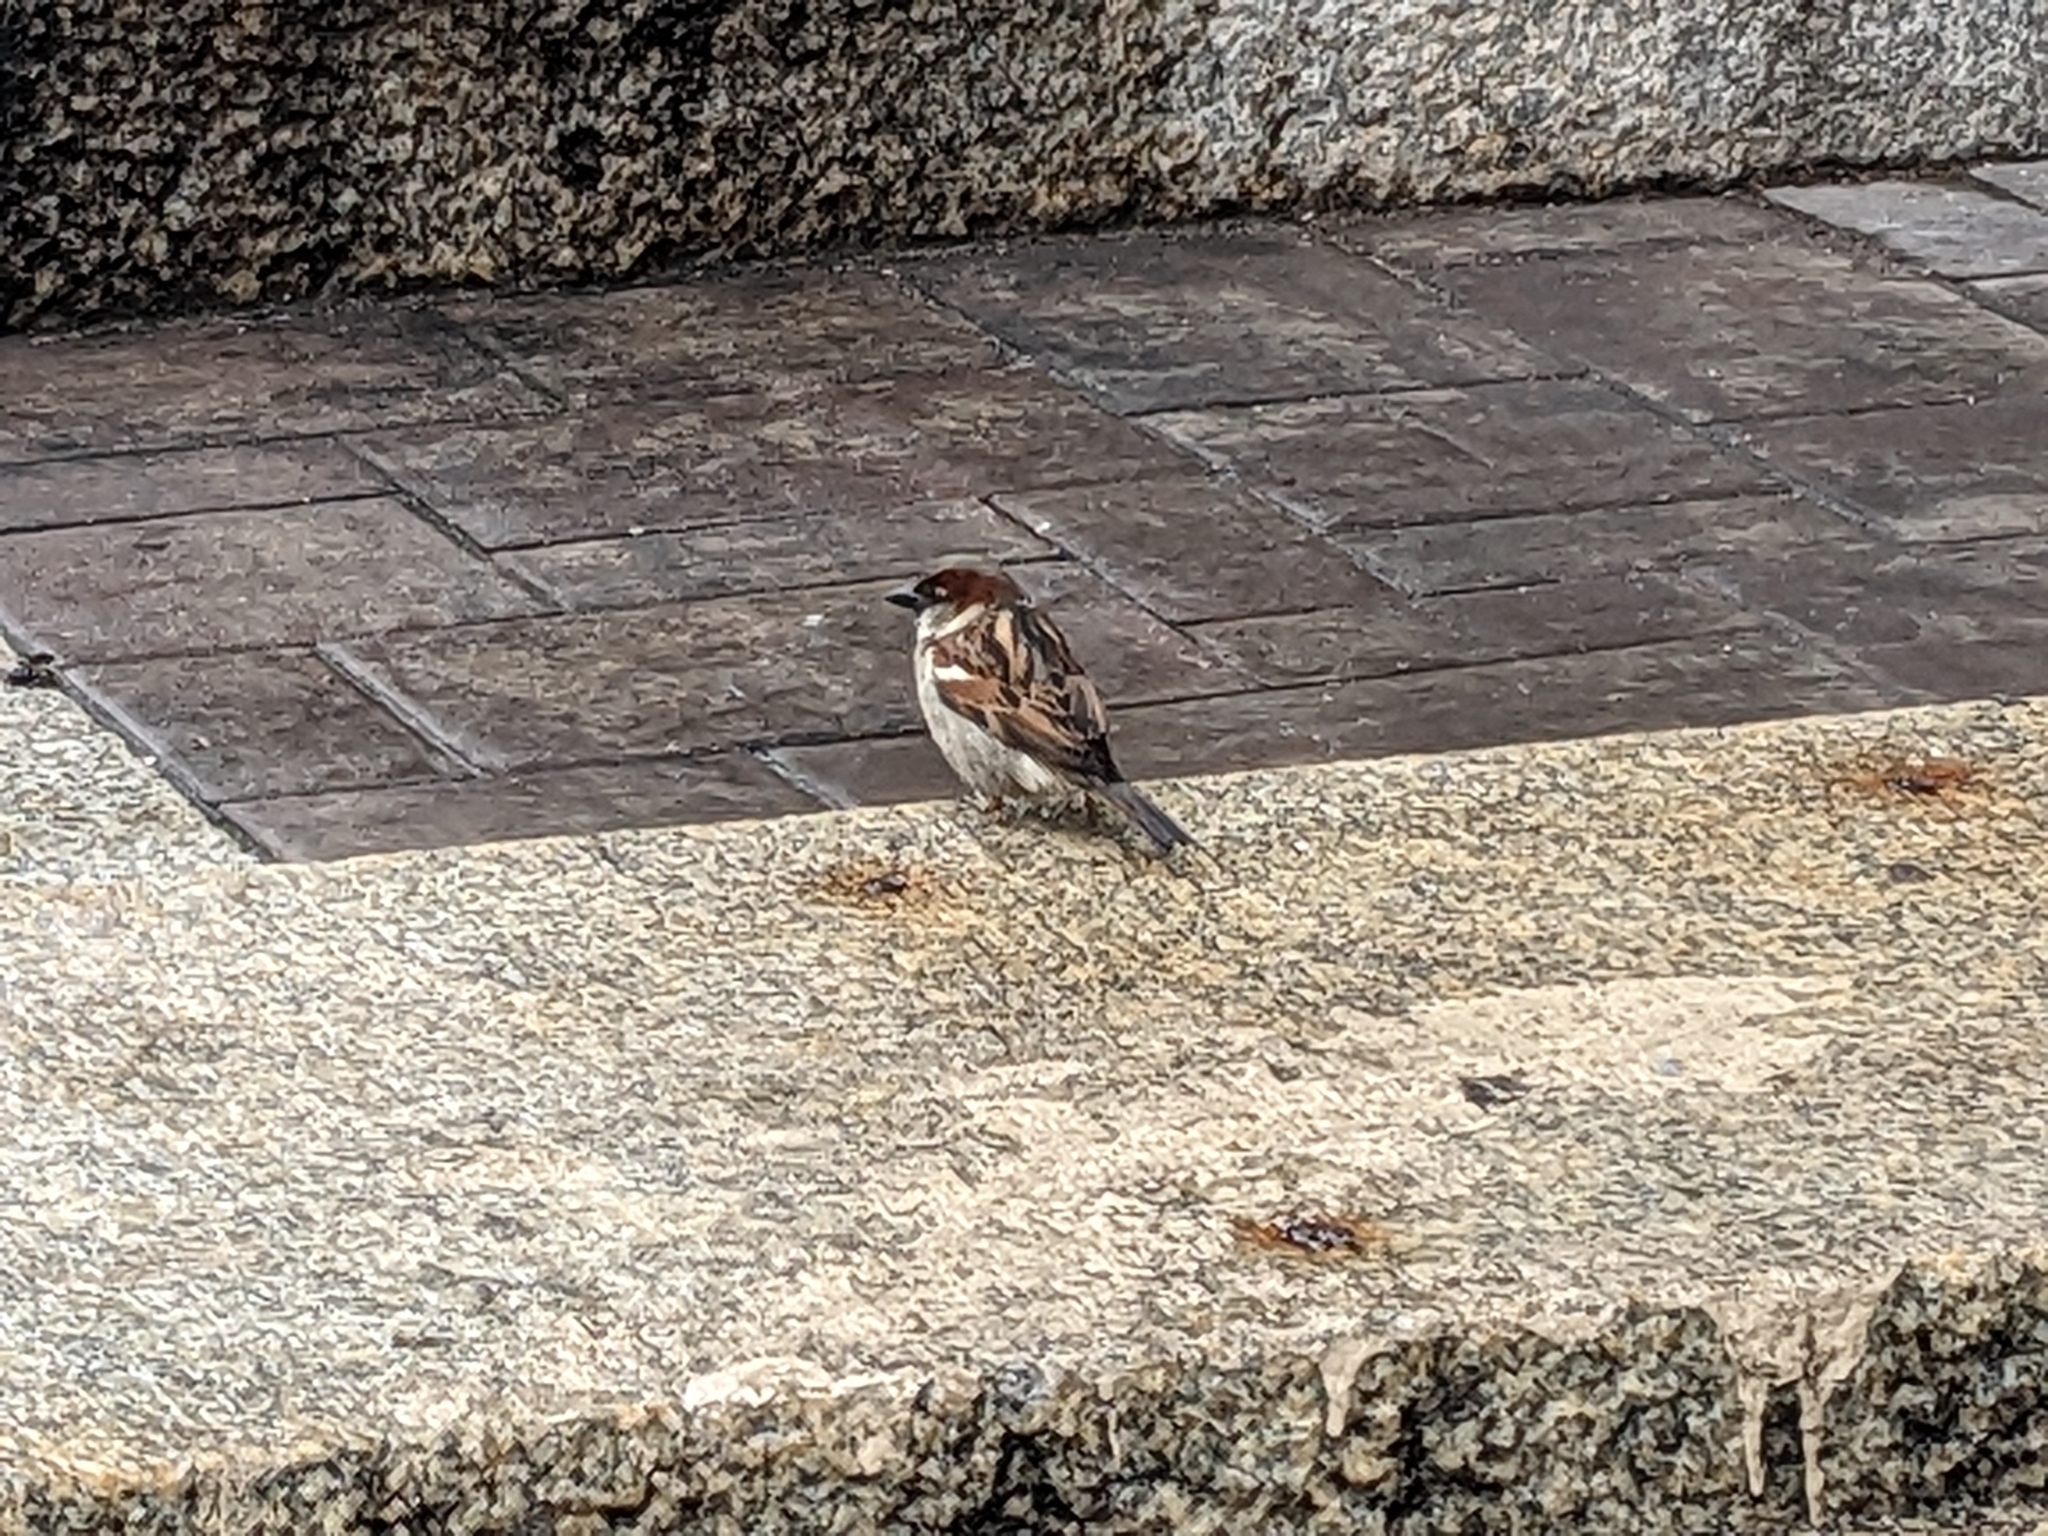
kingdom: Animalia
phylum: Chordata
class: Aves
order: Passeriformes
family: Passeridae
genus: Passer
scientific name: Passer domesticus
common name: House sparrow
